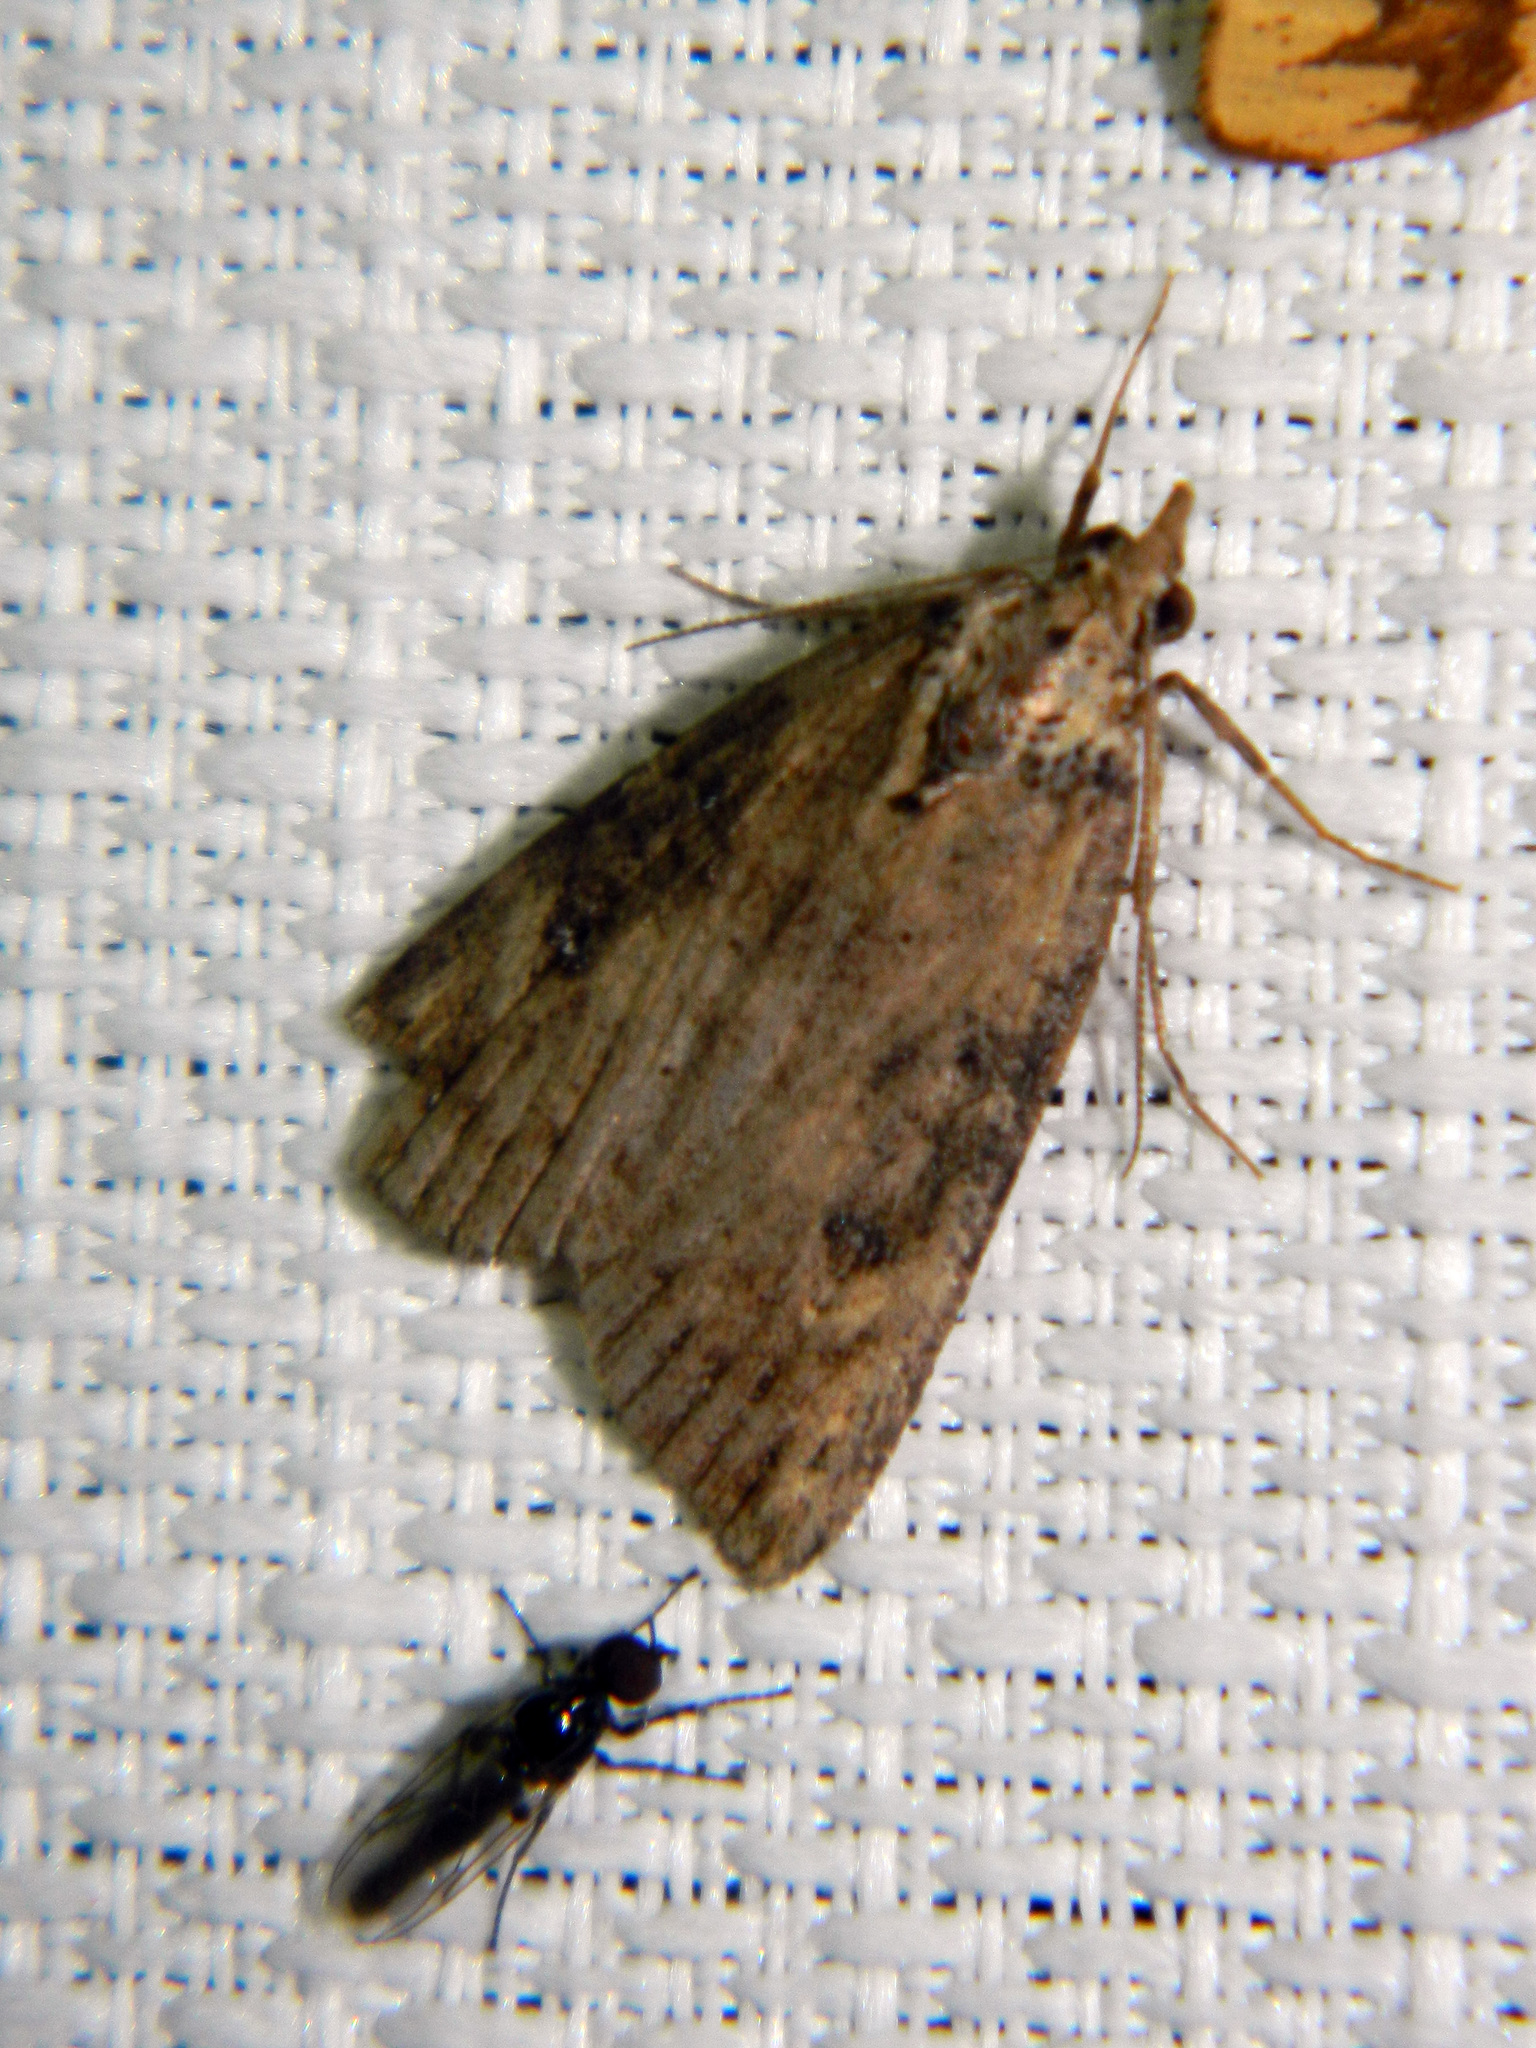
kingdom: Animalia
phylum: Arthropoda
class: Insecta
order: Lepidoptera
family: Erebidae
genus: Hypena
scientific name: Hypena humuli
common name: Hop vine snout
